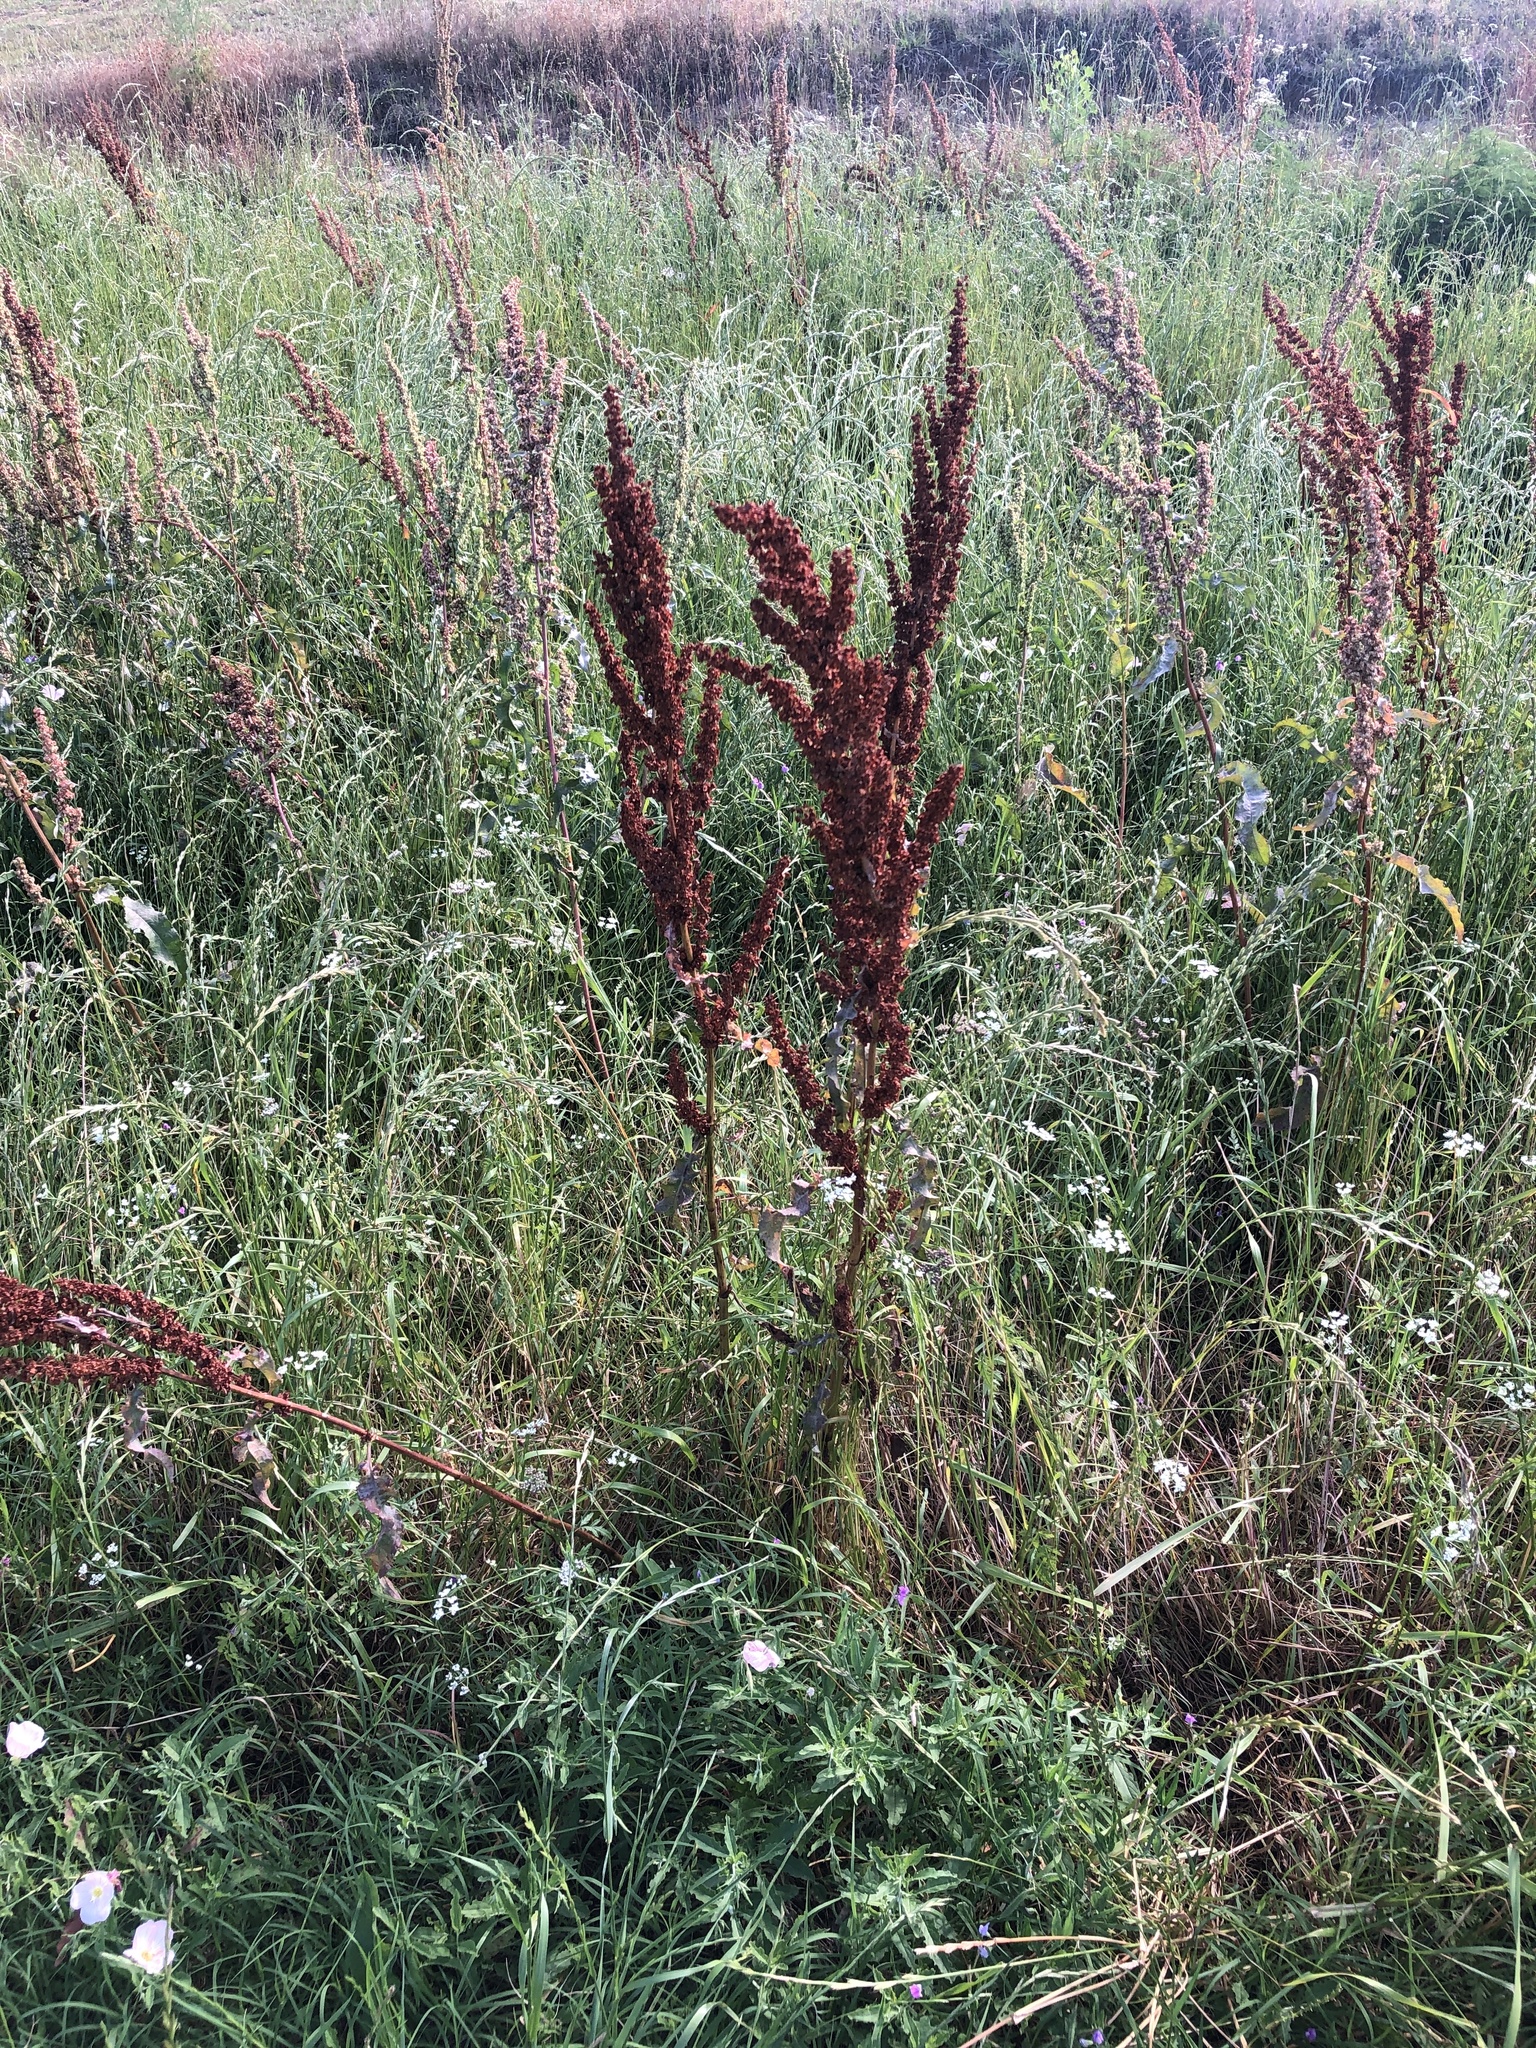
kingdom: Plantae
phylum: Tracheophyta
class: Magnoliopsida
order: Caryophyllales
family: Polygonaceae
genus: Rumex
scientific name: Rumex crispus
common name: Curled dock
